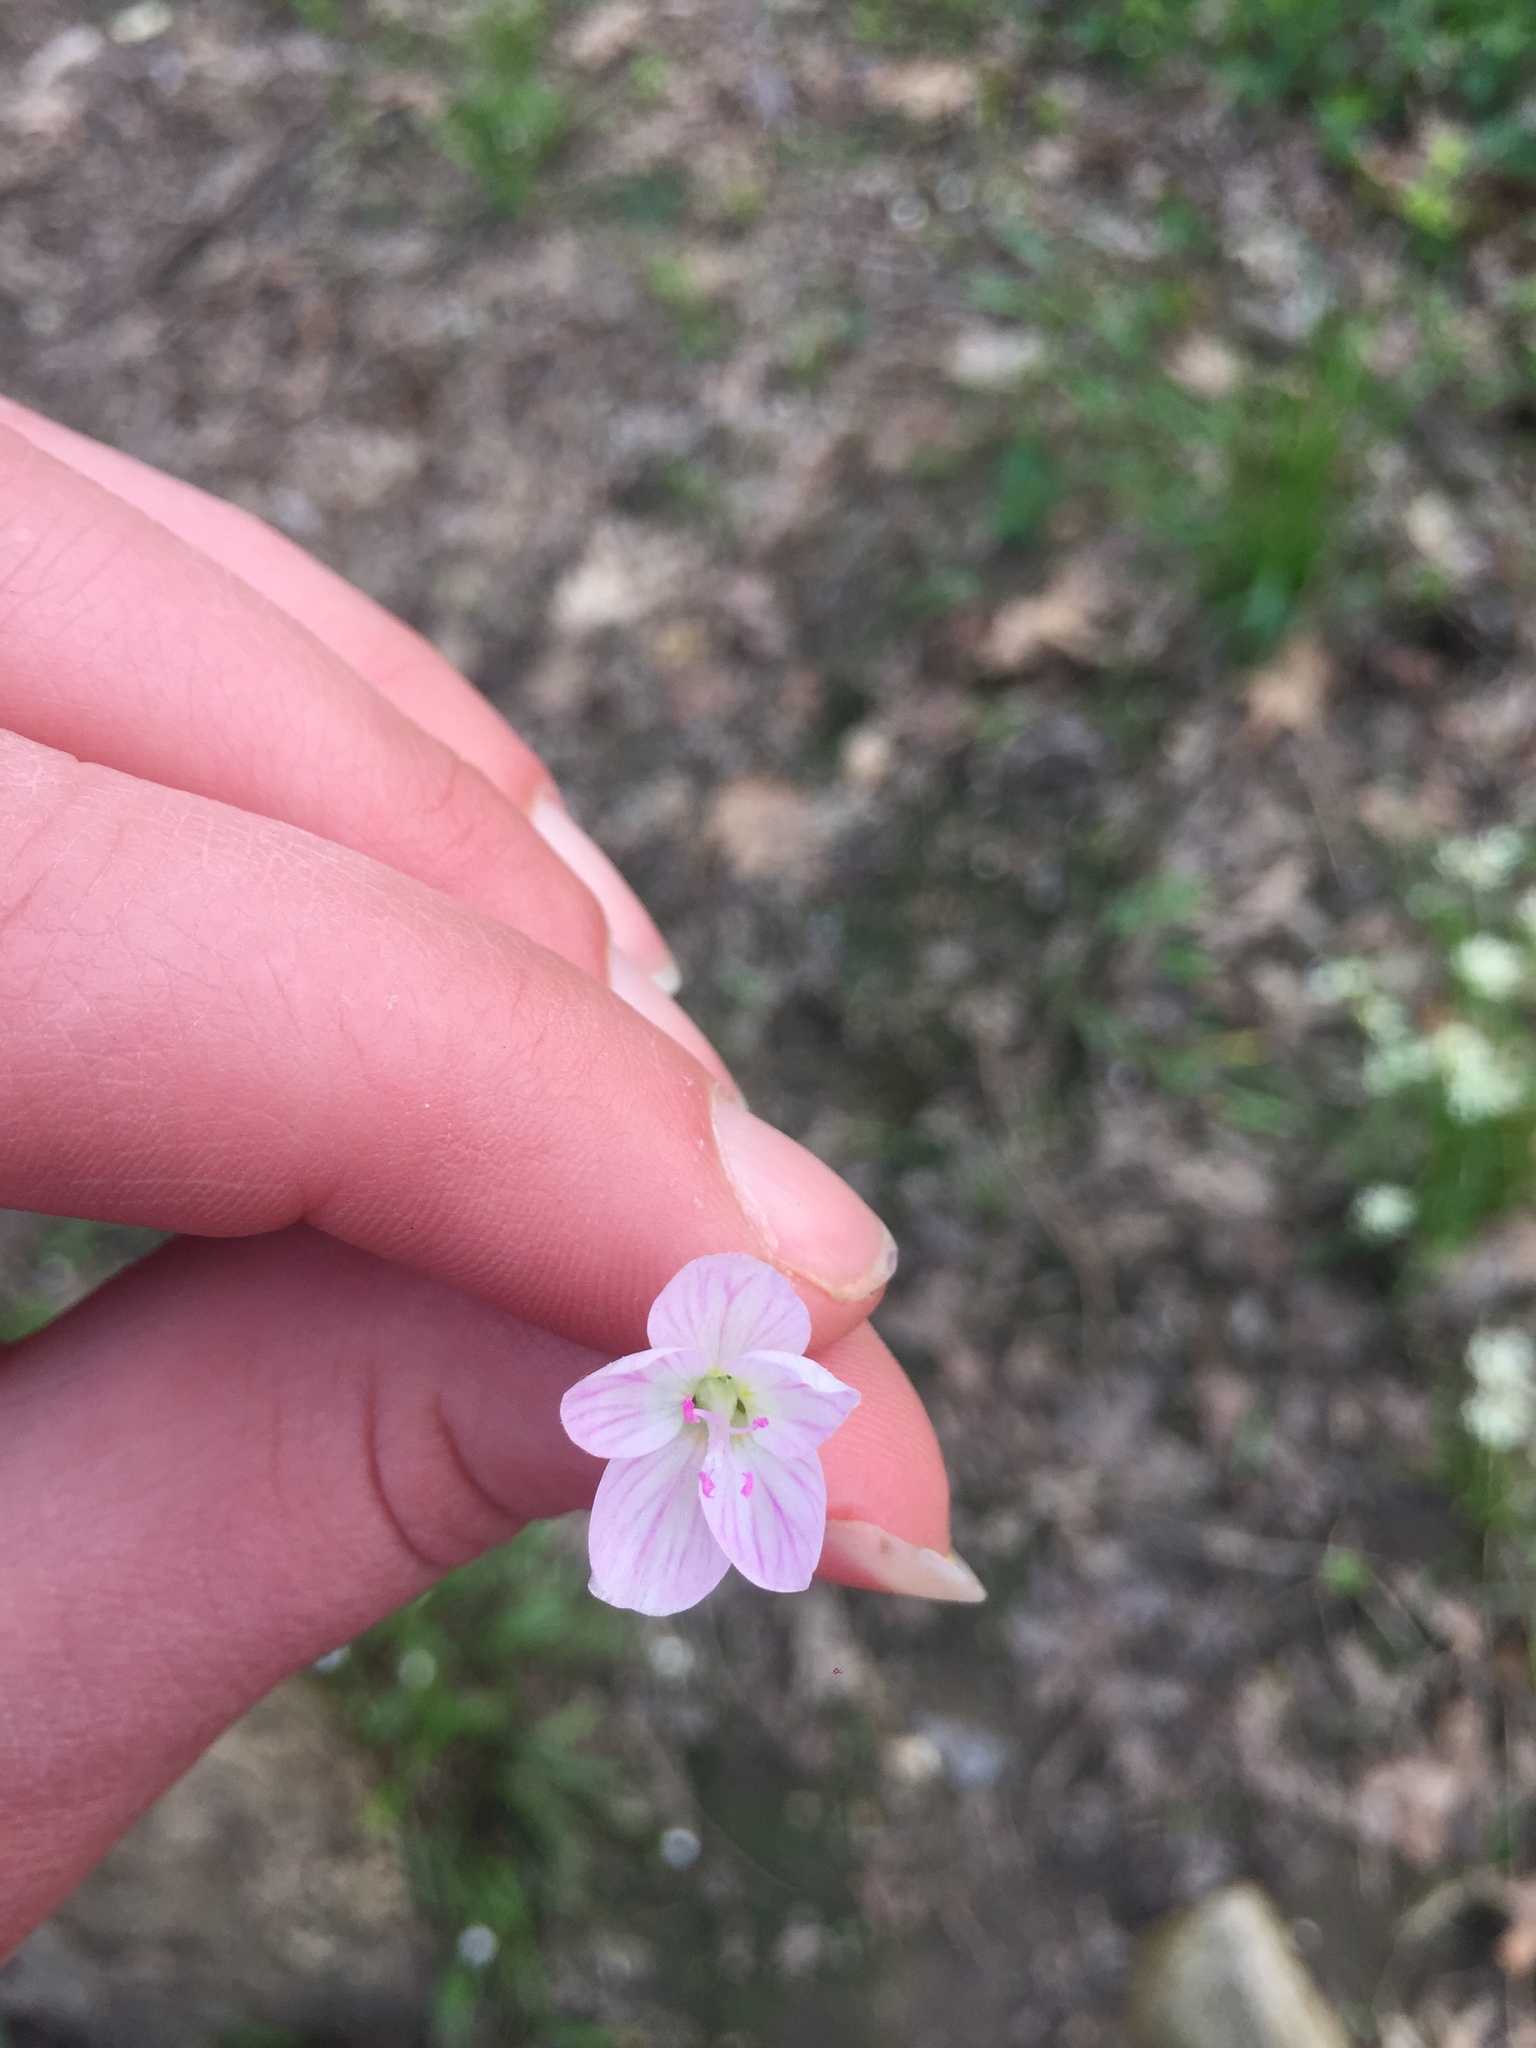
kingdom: Plantae
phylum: Tracheophyta
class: Magnoliopsida
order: Caryophyllales
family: Montiaceae
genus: Claytonia
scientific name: Claytonia virginica
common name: Virginia springbeauty
